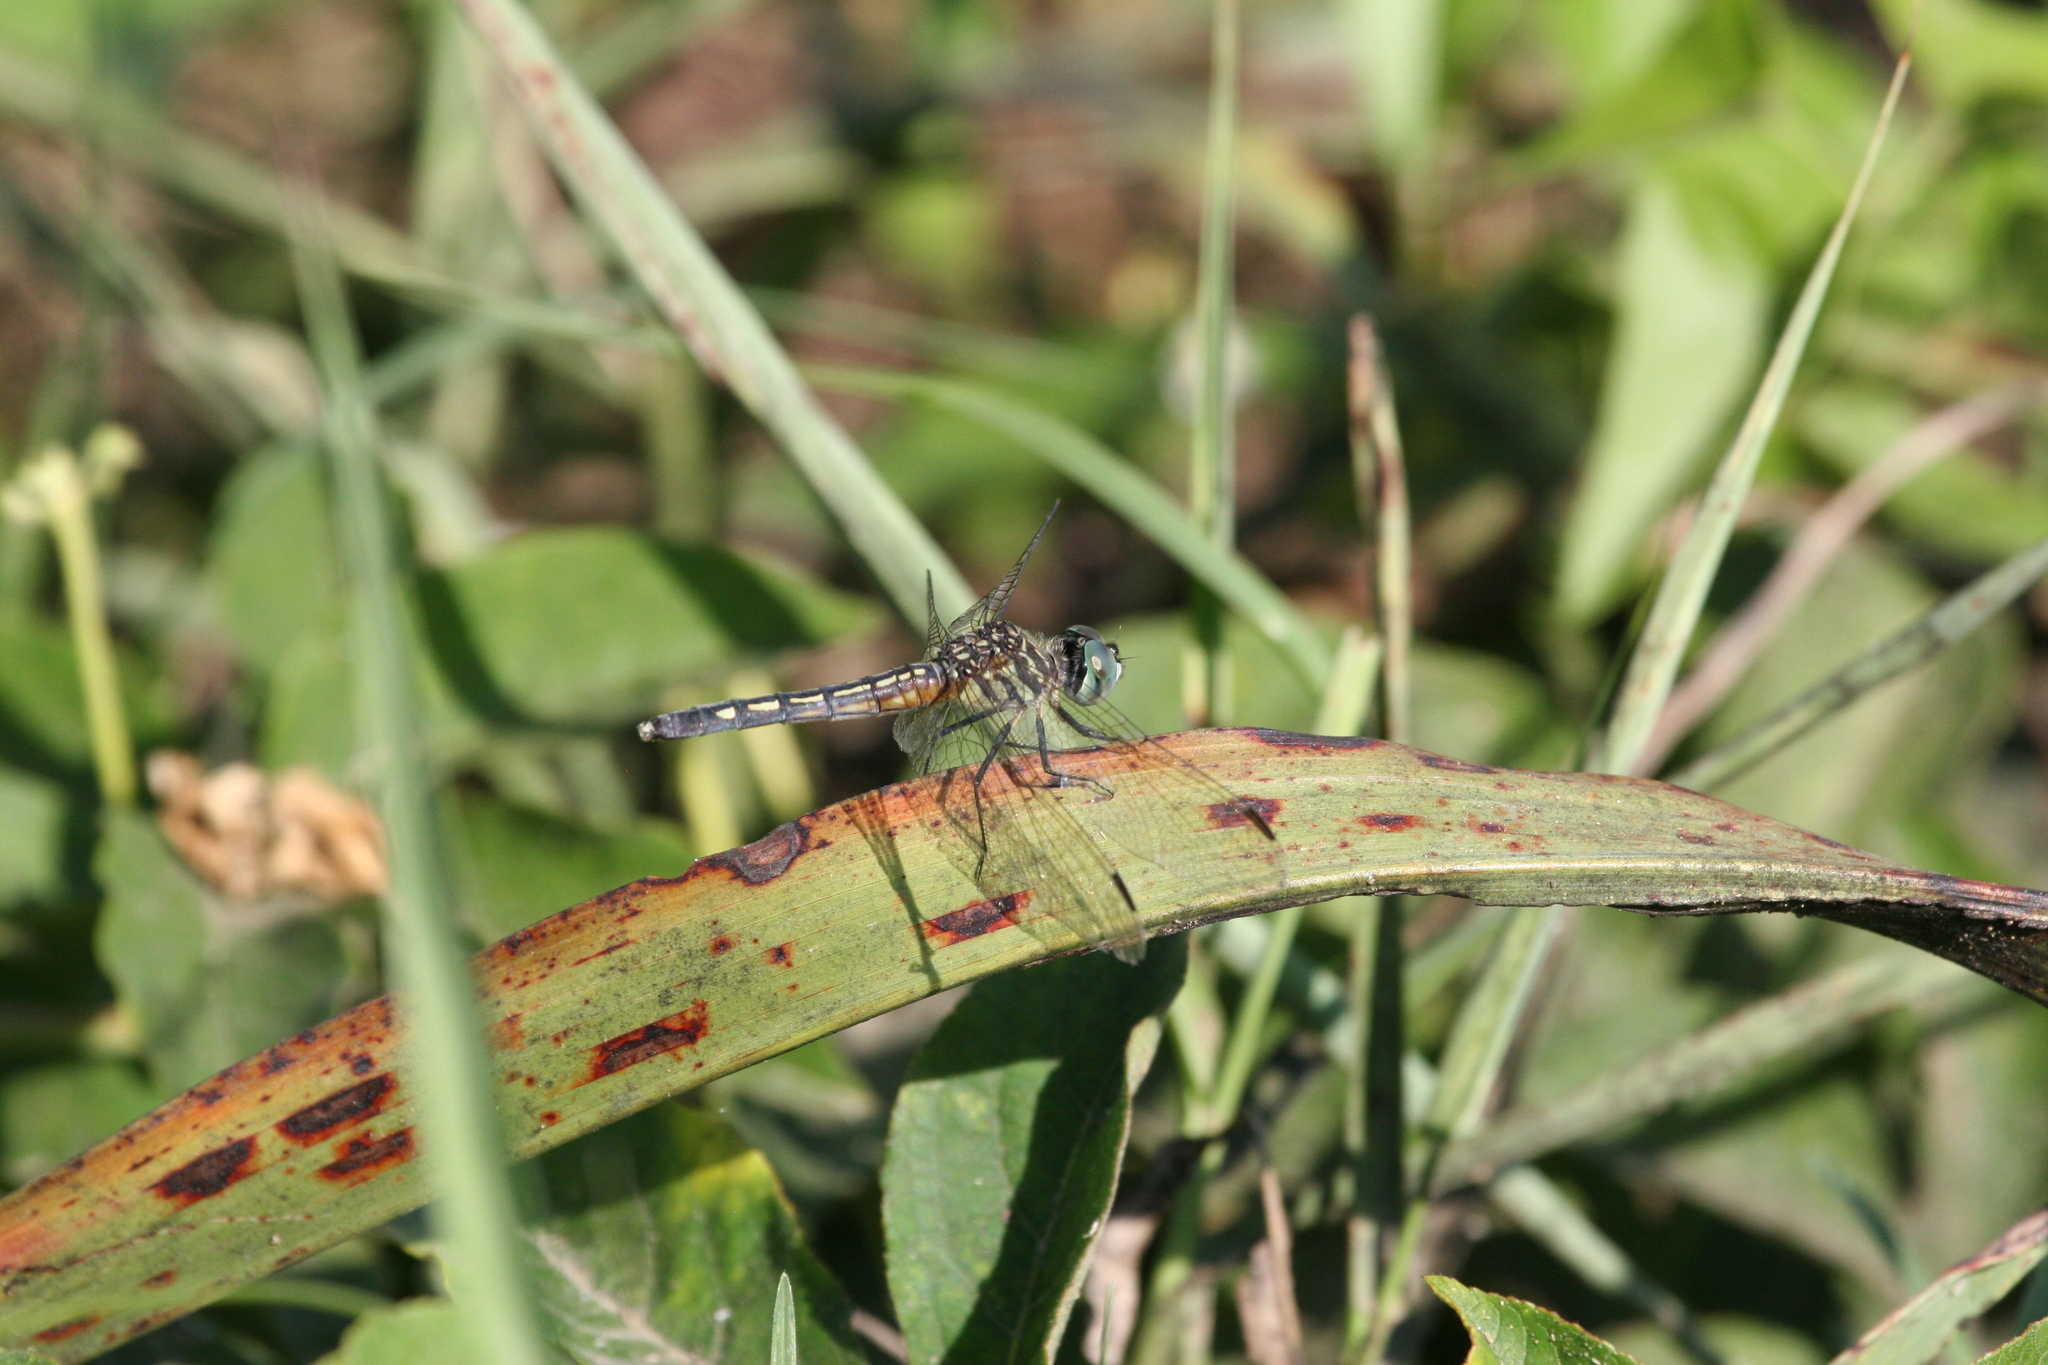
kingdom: Animalia
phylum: Arthropoda
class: Insecta
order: Odonata
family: Libellulidae
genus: Pachydiplax
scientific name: Pachydiplax longipennis
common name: Blue dasher
